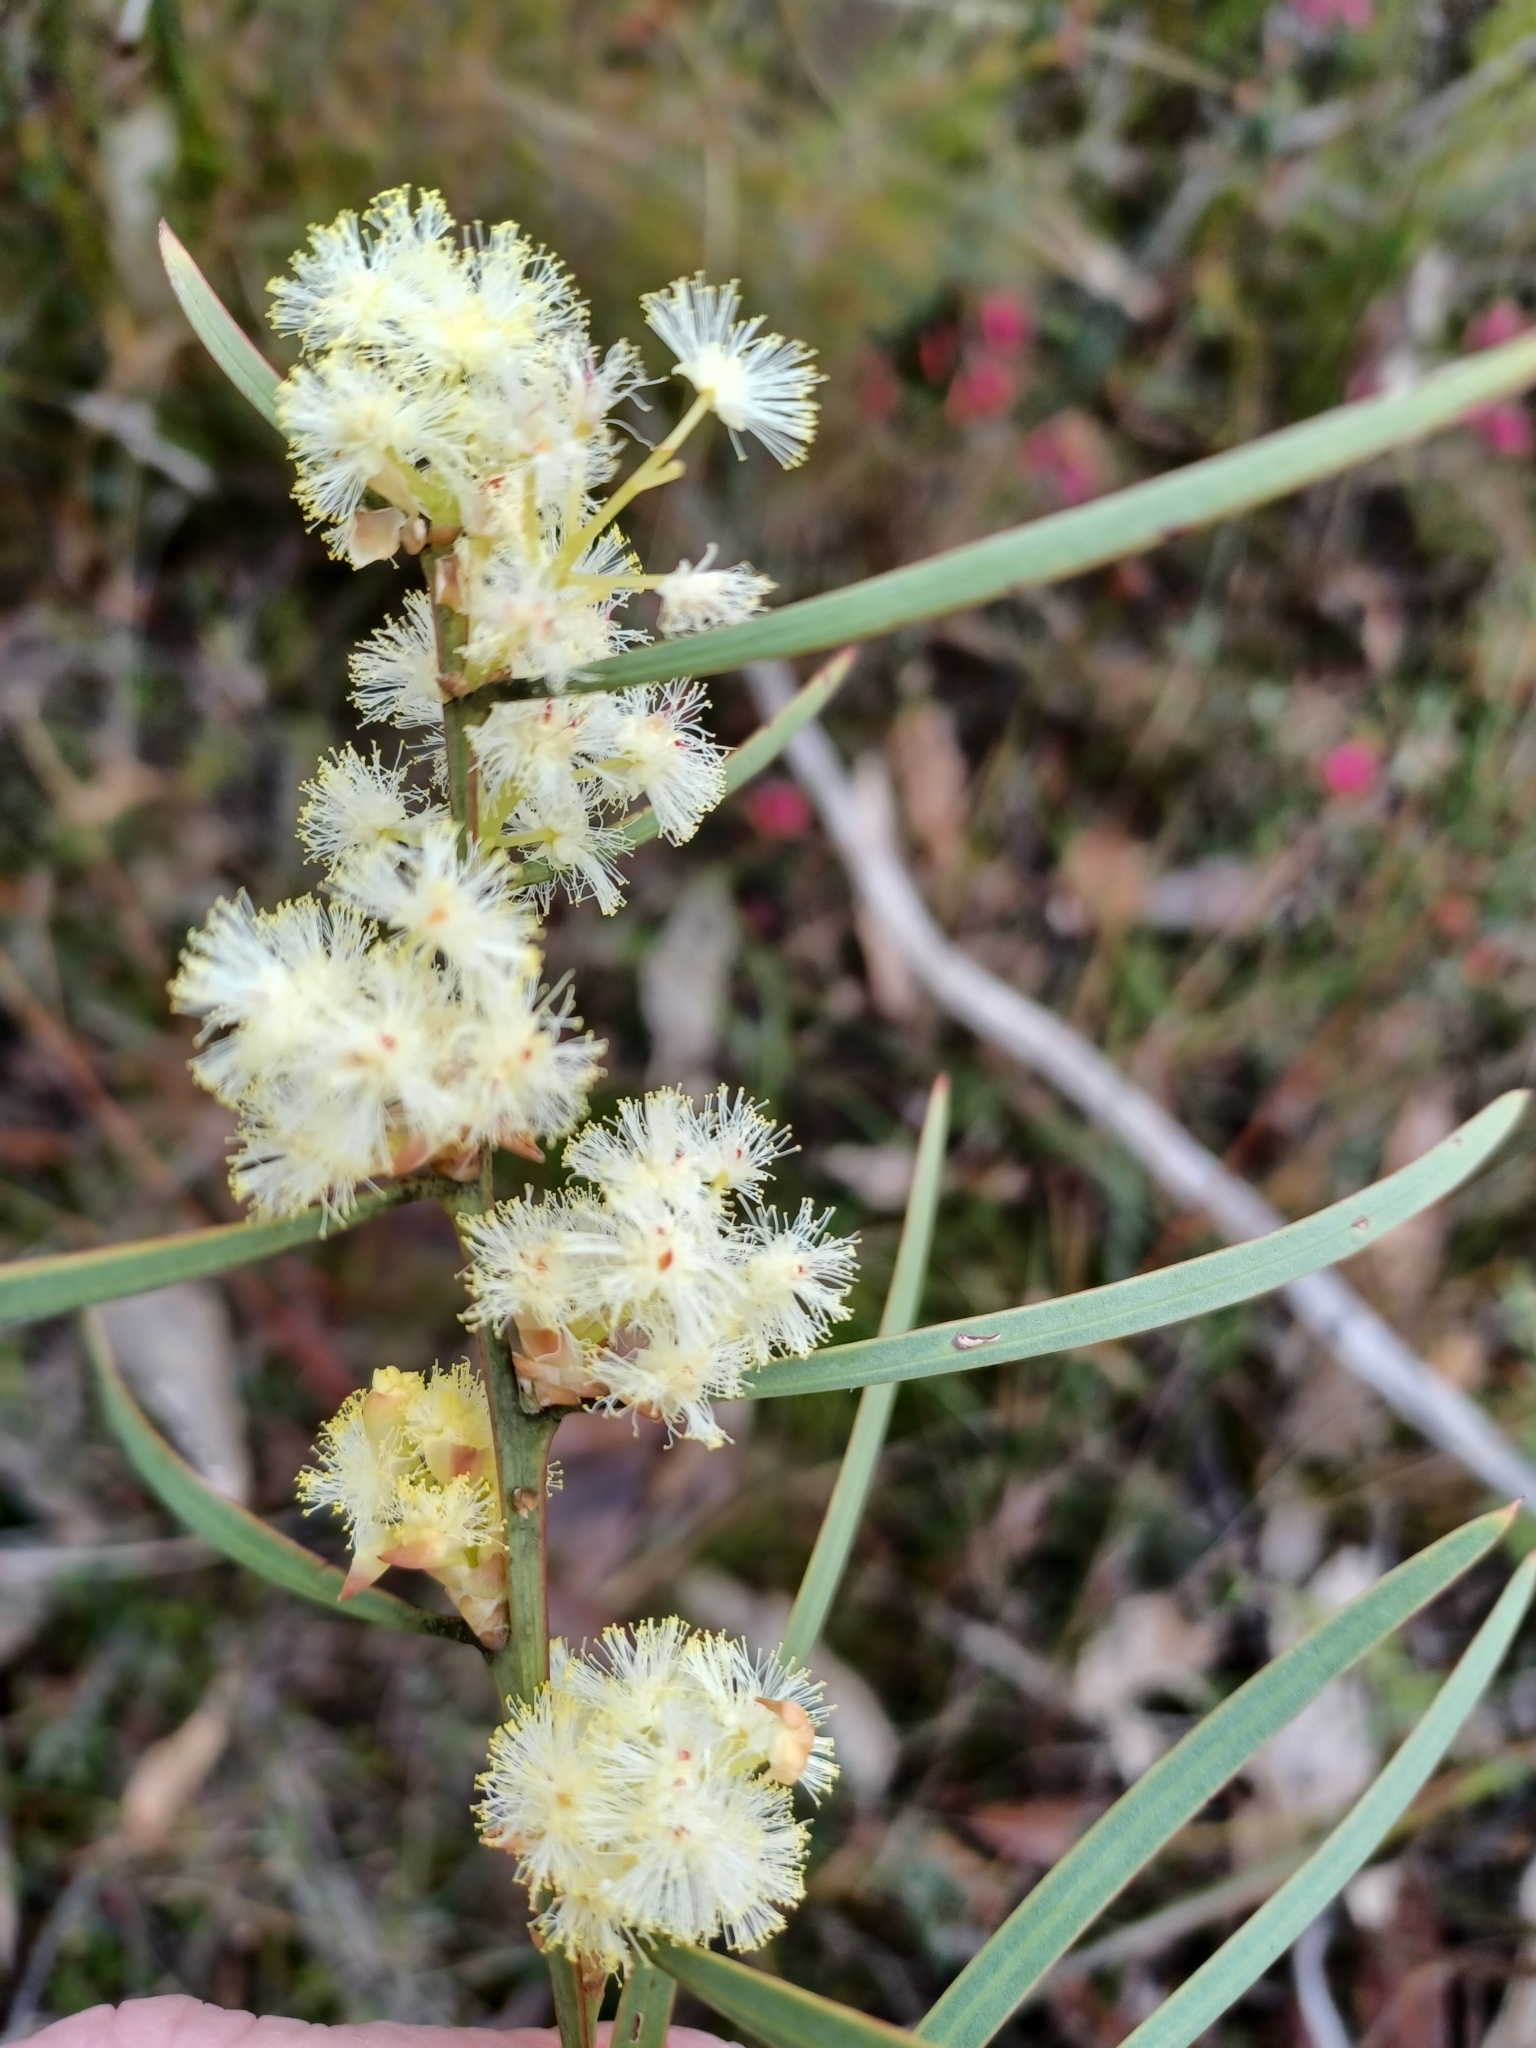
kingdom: Plantae
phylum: Tracheophyta
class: Magnoliopsida
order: Fabales
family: Fabaceae
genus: Acacia
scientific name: Acacia suaveolens
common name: Sweet acacia
